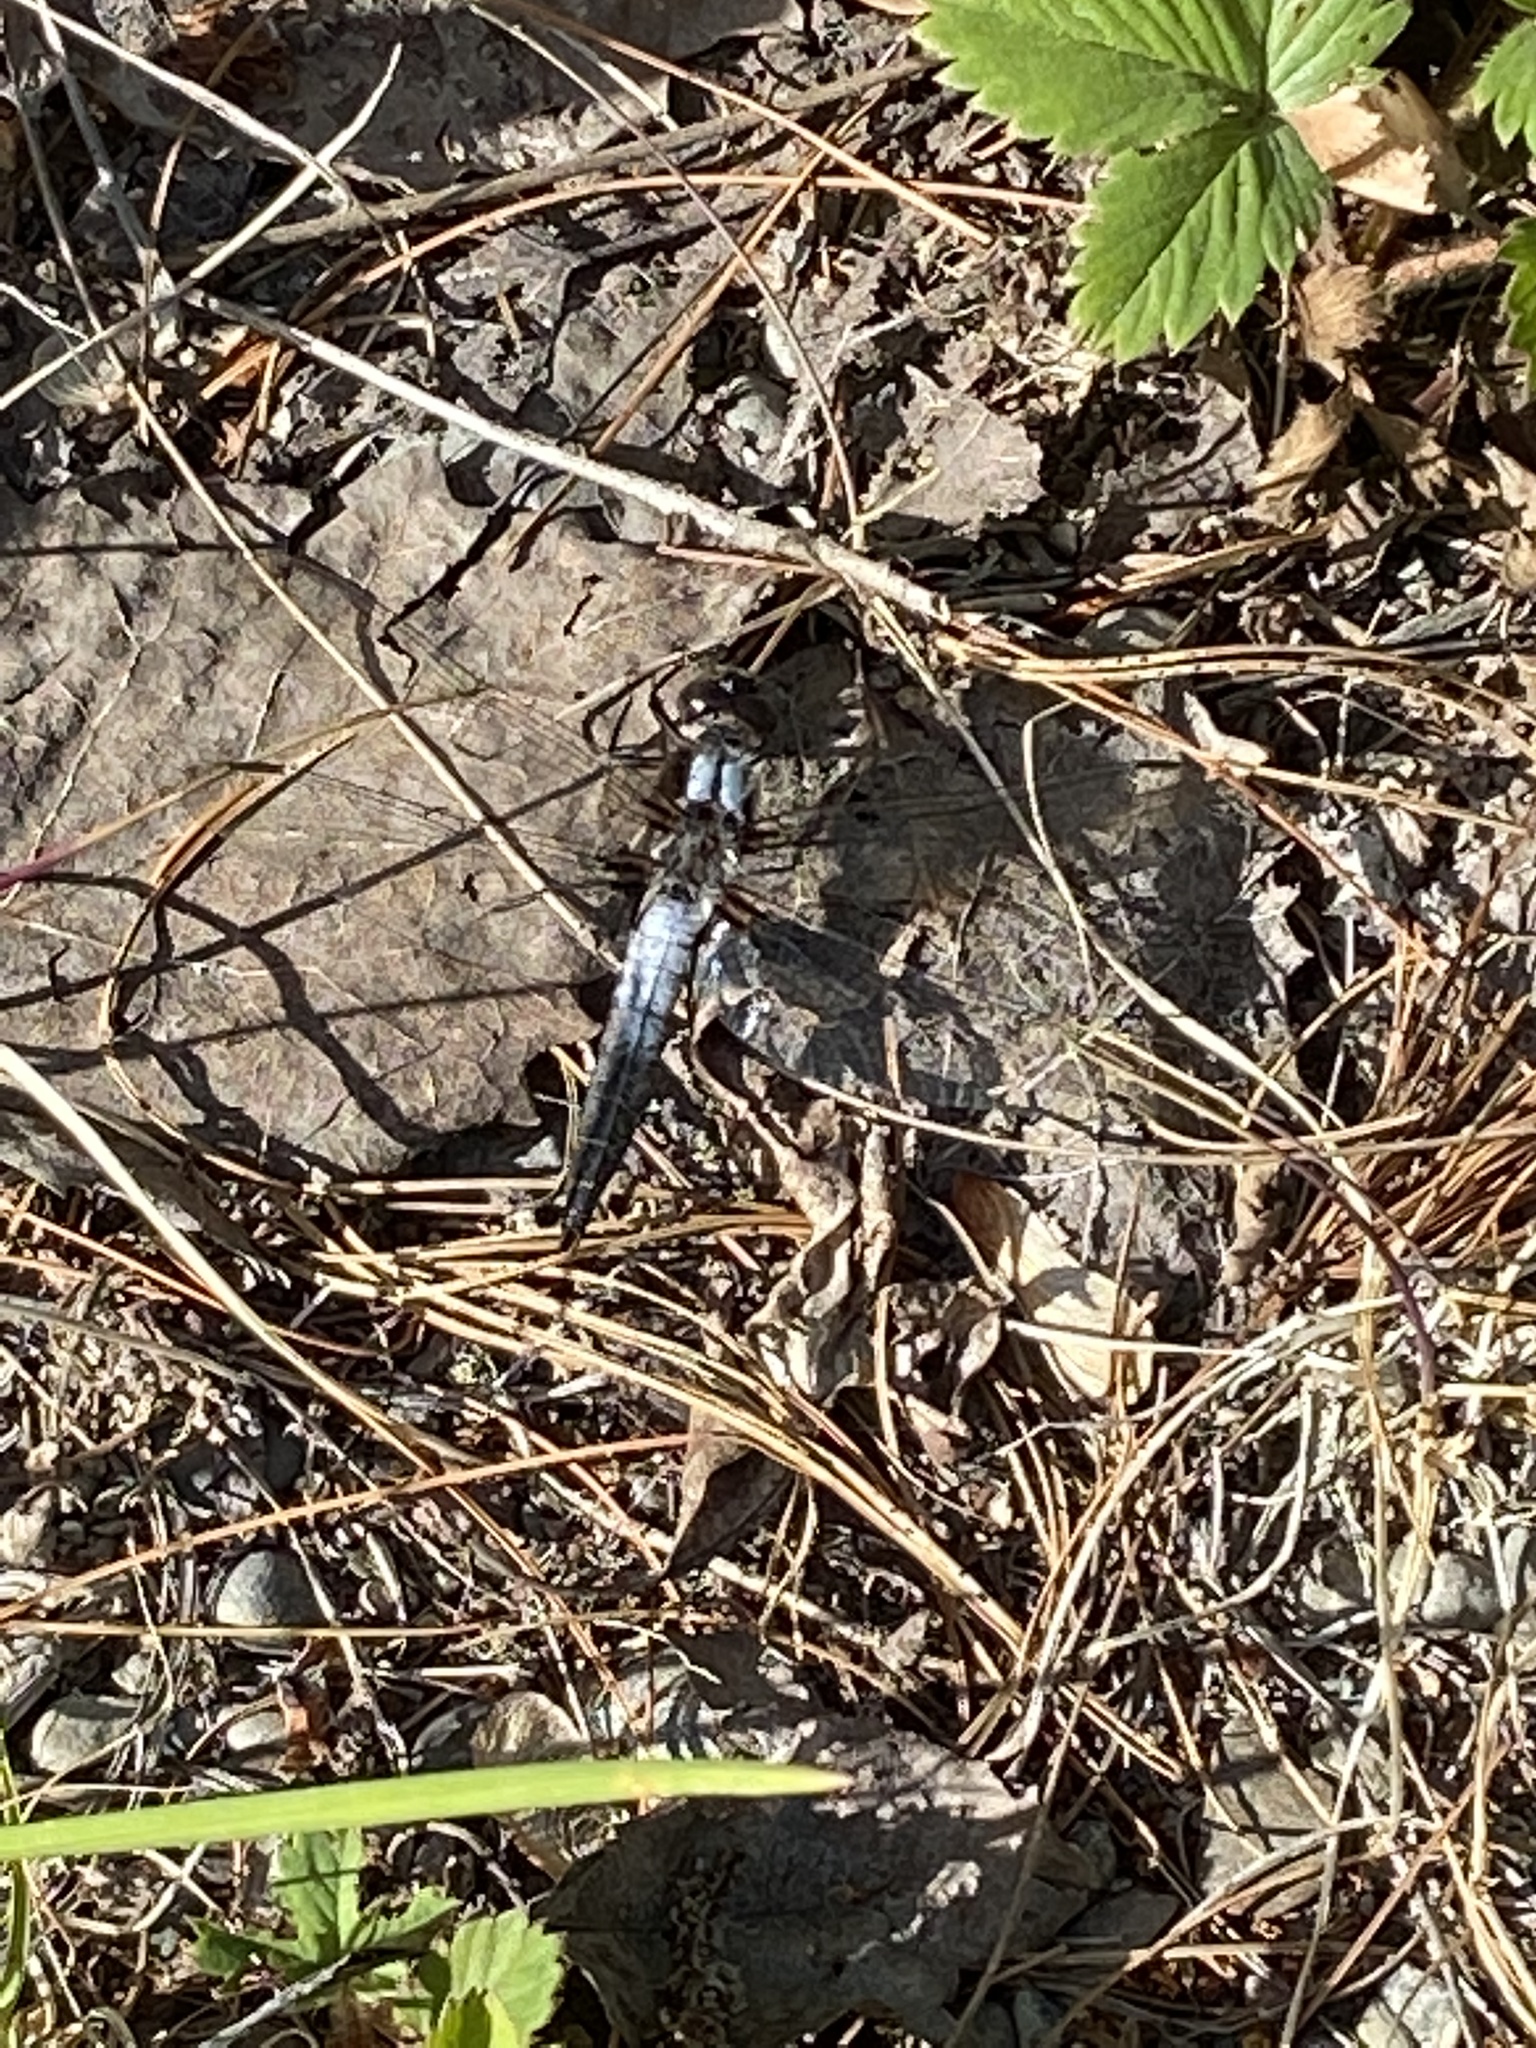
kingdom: Animalia
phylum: Arthropoda
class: Insecta
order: Odonata
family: Libellulidae
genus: Ladona
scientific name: Ladona julia
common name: Chalk-fronted corporal
